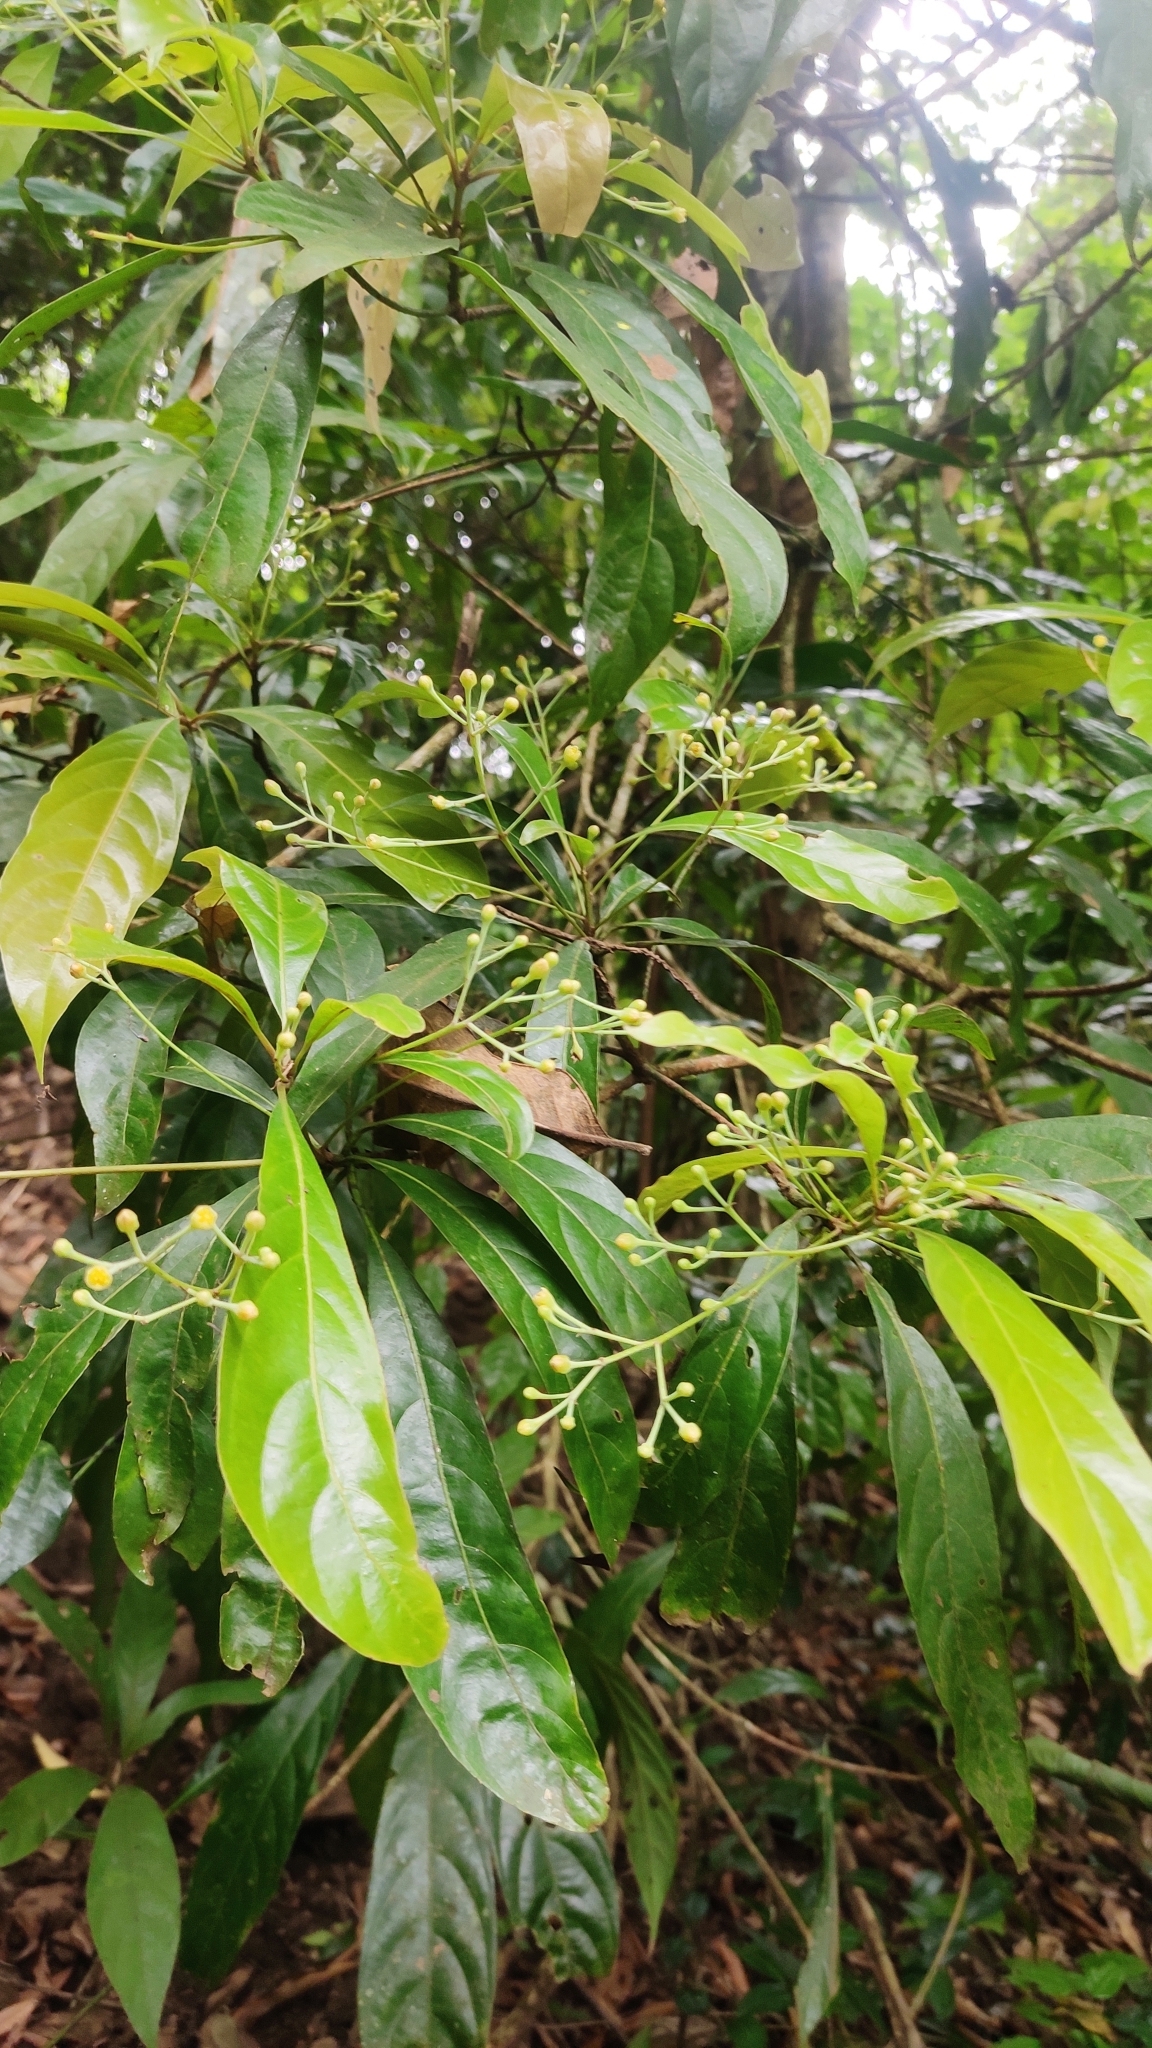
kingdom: Plantae
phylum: Tracheophyta
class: Magnoliopsida
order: Laurales
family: Lauraceae
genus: Phoebe
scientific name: Phoebe lanceolata
